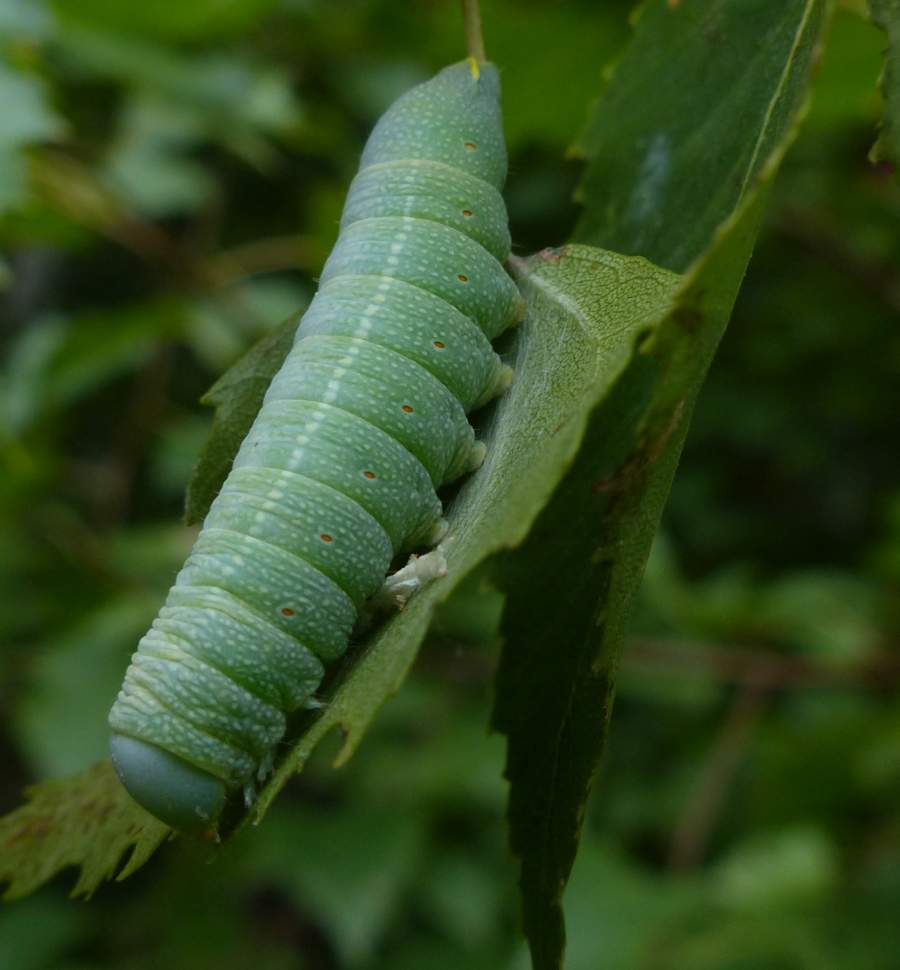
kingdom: Animalia
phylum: Arthropoda
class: Insecta
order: Lepidoptera
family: Notodontidae
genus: Nadata
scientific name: Nadata gibbosa
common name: White-dotted prominent
